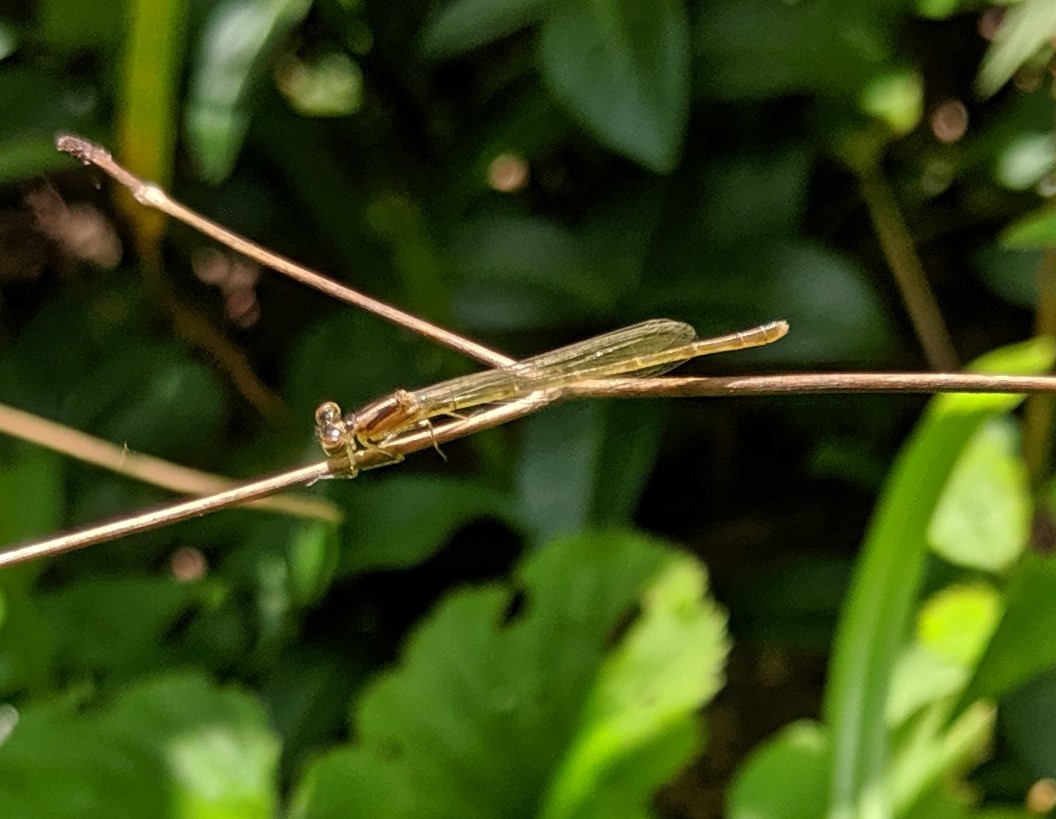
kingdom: Animalia
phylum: Arthropoda
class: Insecta
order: Odonata
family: Coenagrionidae
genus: Ischnura
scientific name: Ischnura posita
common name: Fragile forktail
